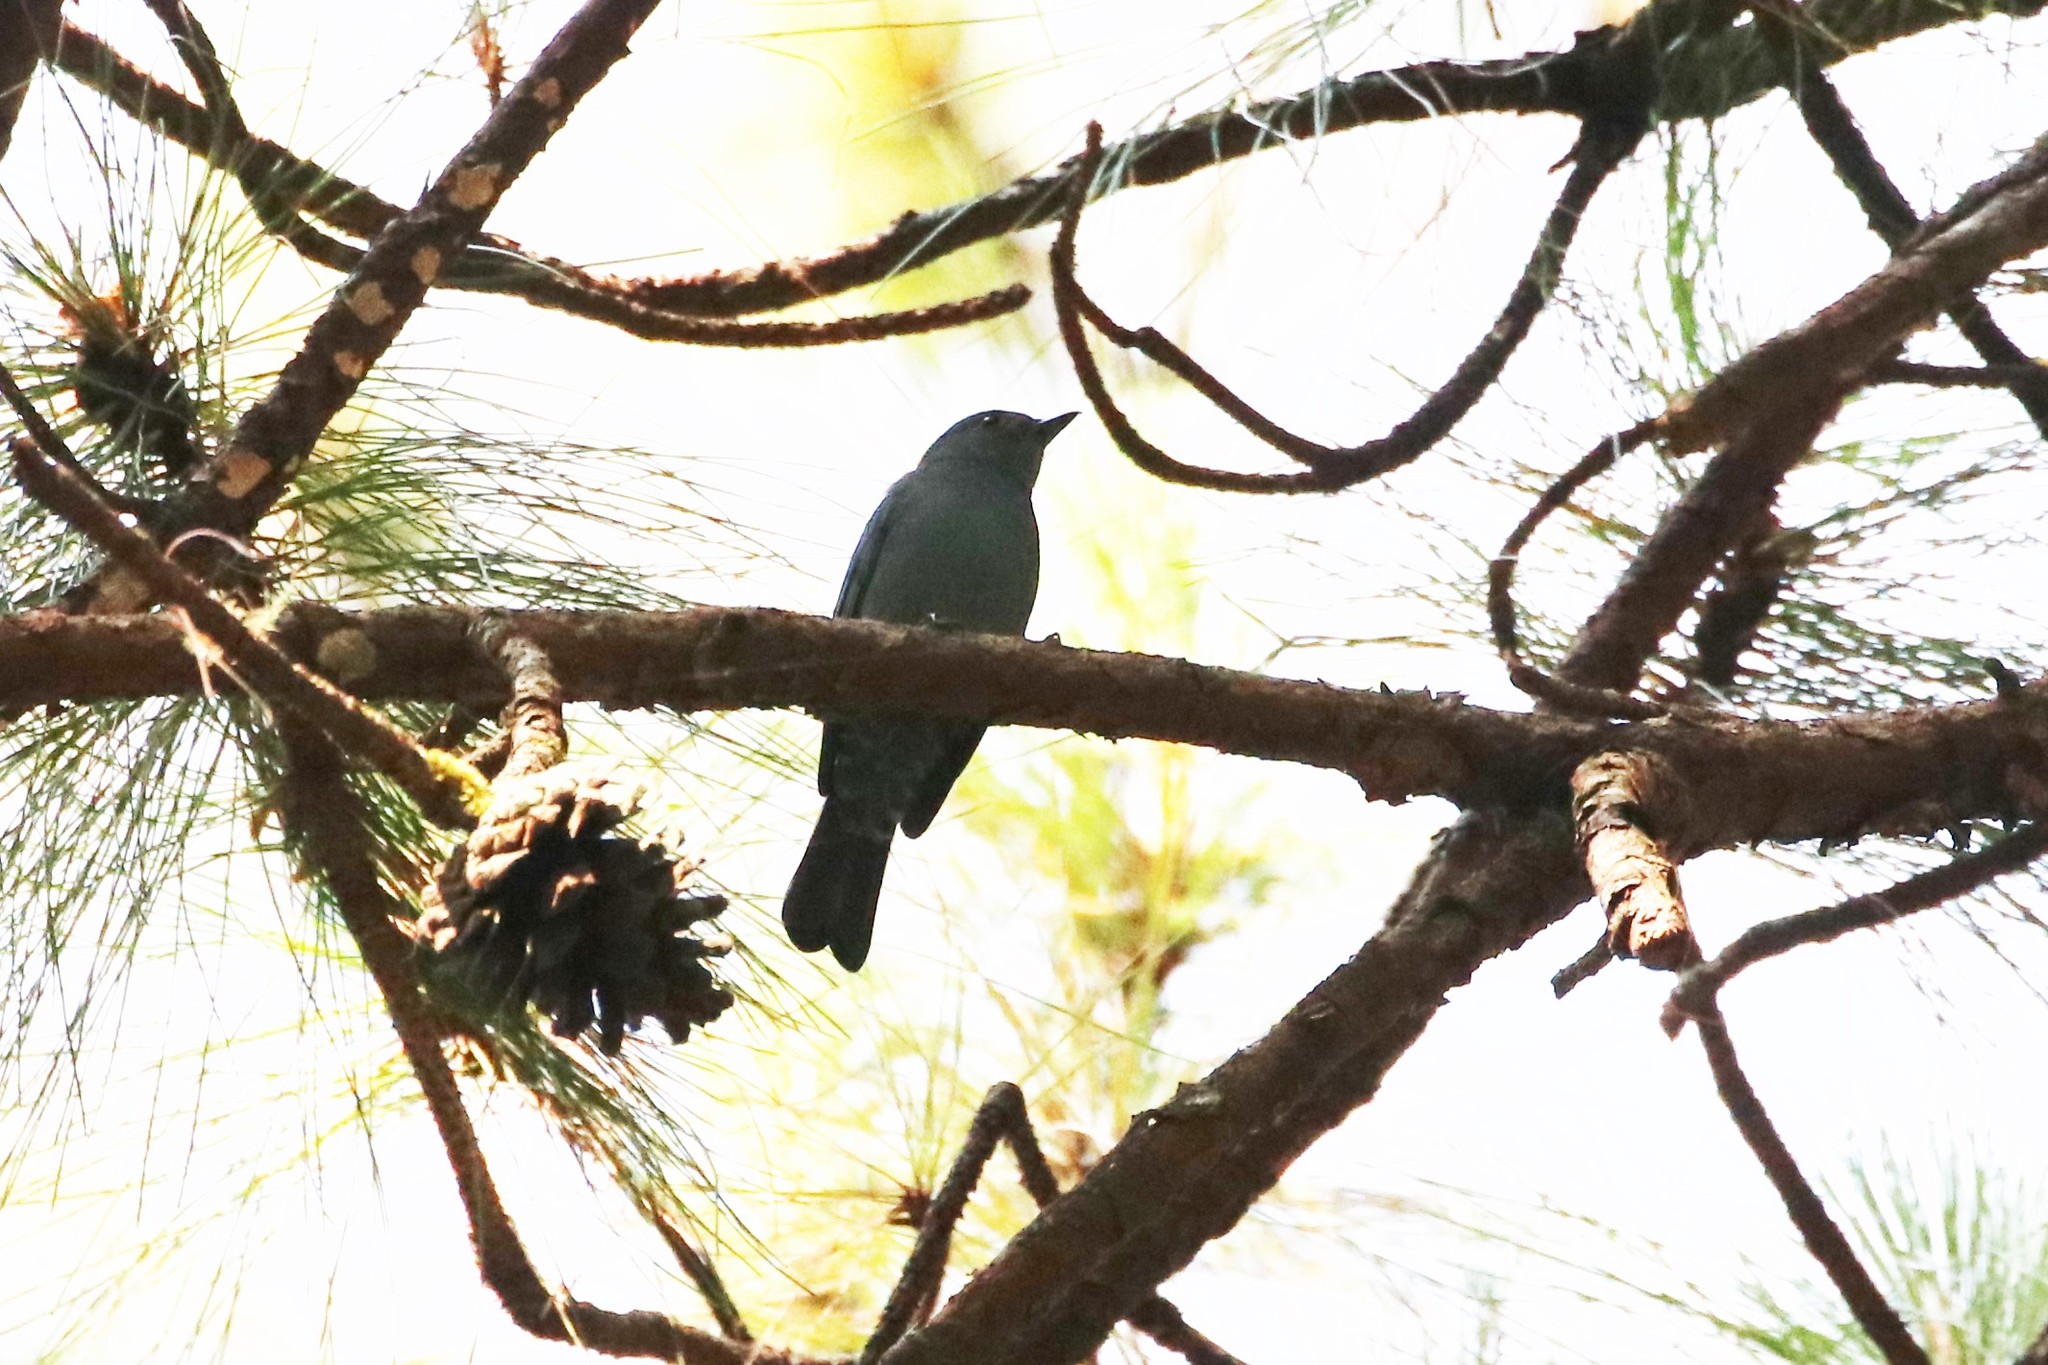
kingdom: Animalia
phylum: Chordata
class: Aves
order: Passeriformes
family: Muscicapidae
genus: Monticola
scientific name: Monticola solitarius
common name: Blue rock thrush
